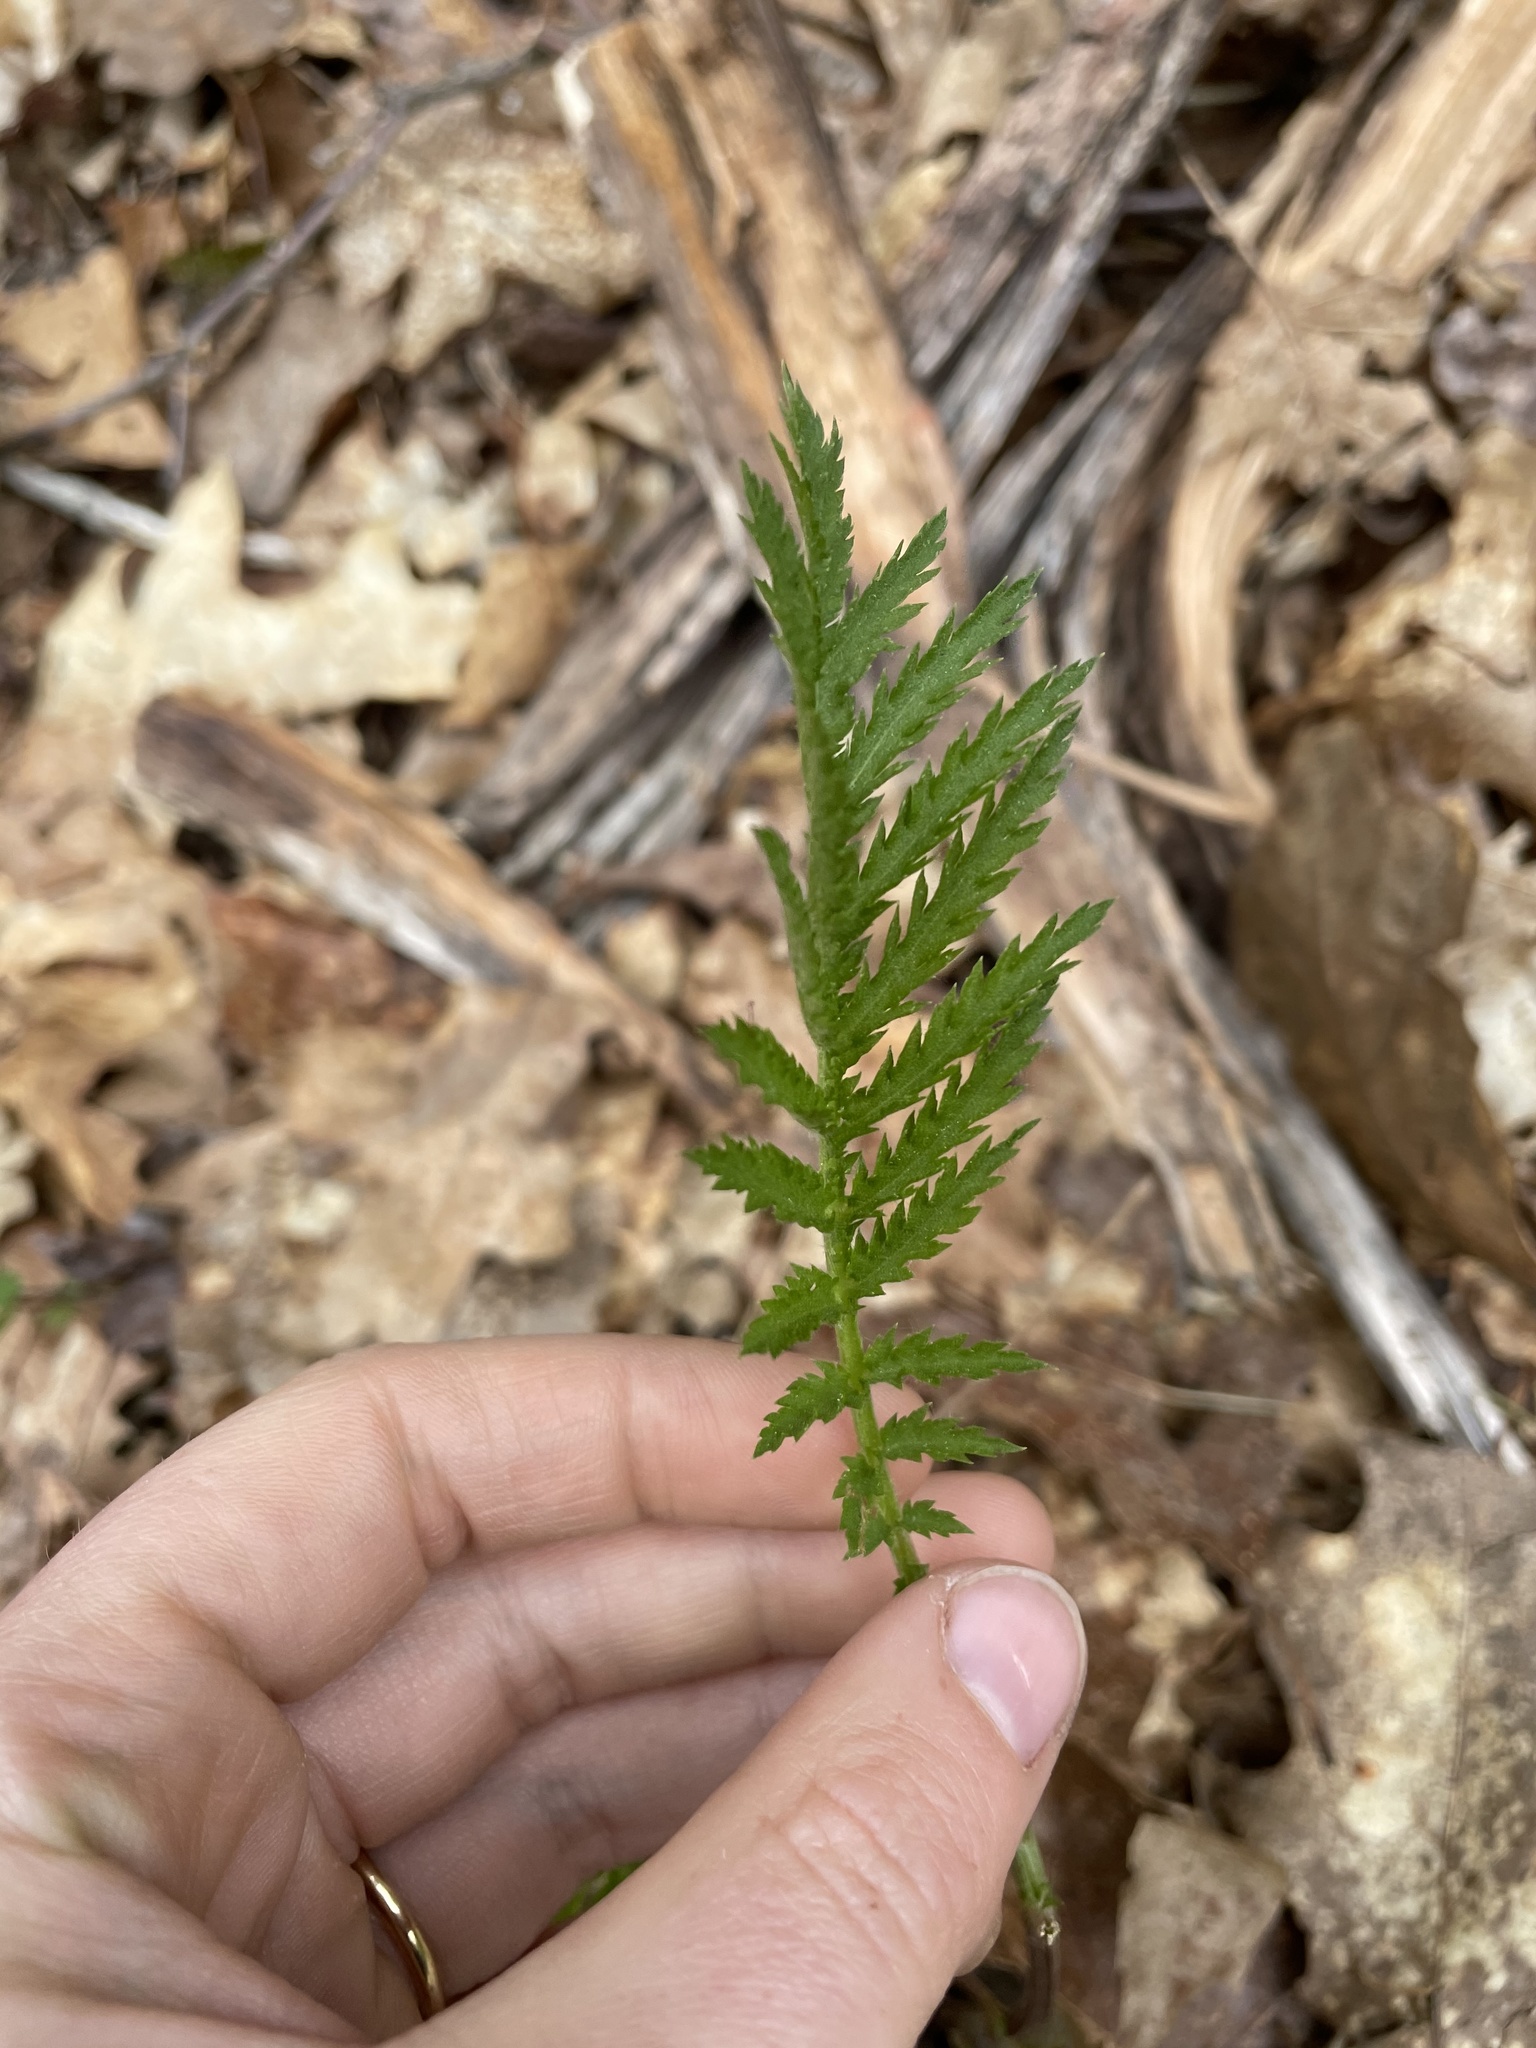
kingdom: Plantae
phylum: Tracheophyta
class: Magnoliopsida
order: Asterales
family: Asteraceae
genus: Tanacetum
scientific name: Tanacetum vulgare
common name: Common tansy
